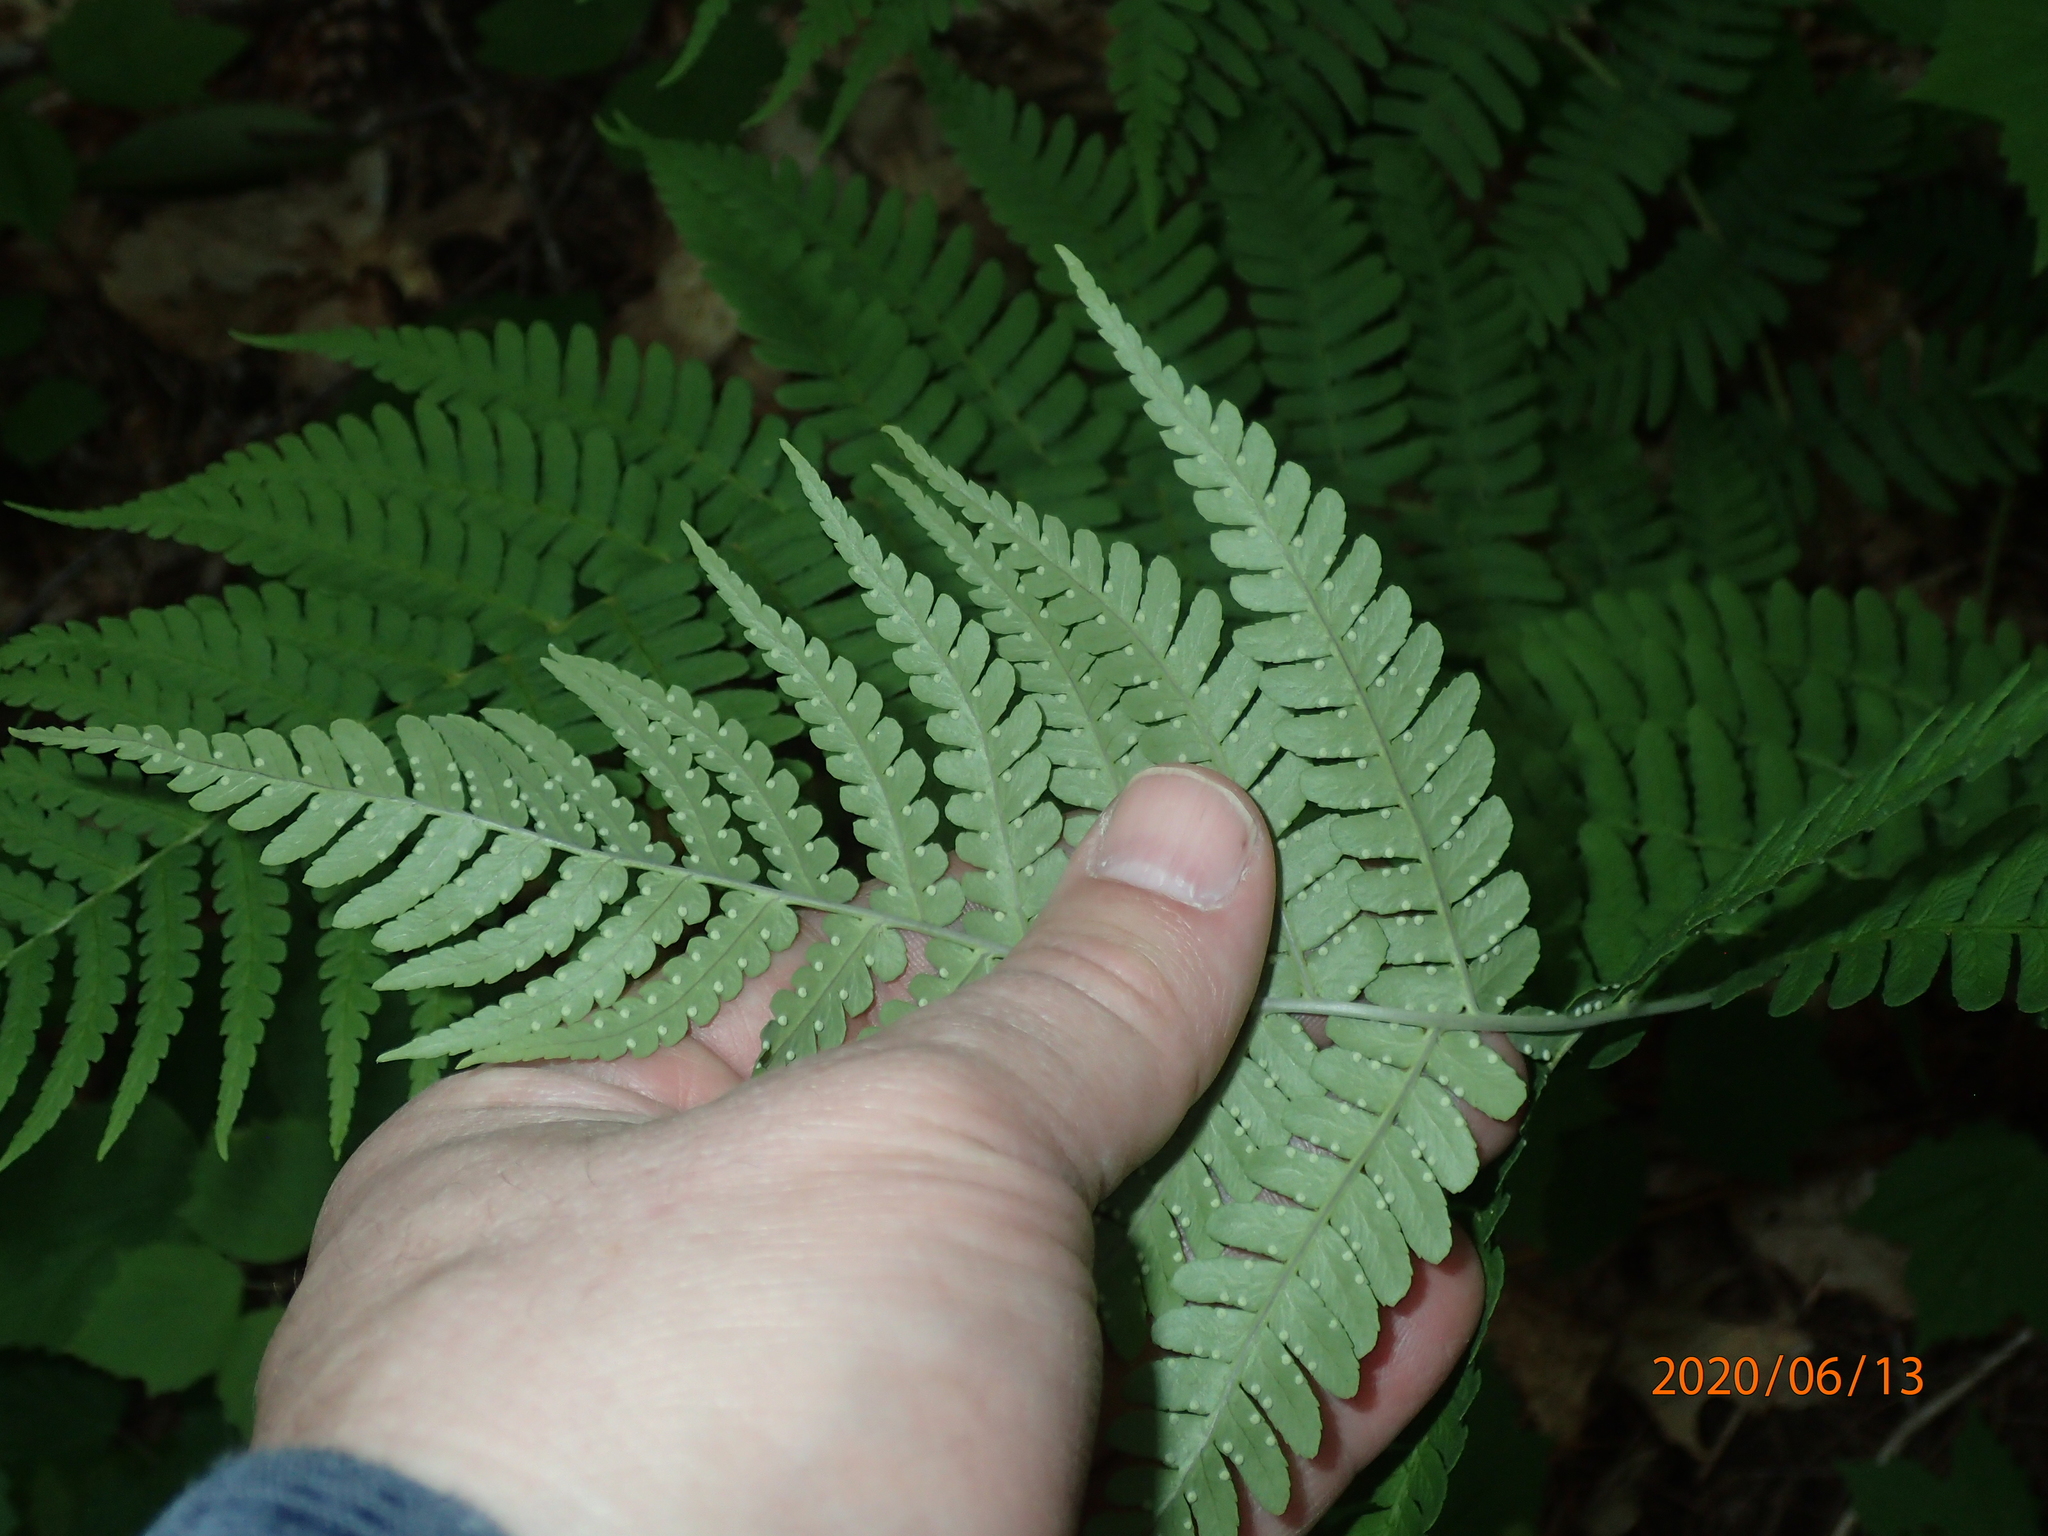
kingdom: Plantae
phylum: Tracheophyta
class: Polypodiopsida
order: Polypodiales
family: Dryopteridaceae
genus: Dryopteris
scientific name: Dryopteris marginalis
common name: Marginal wood fern
